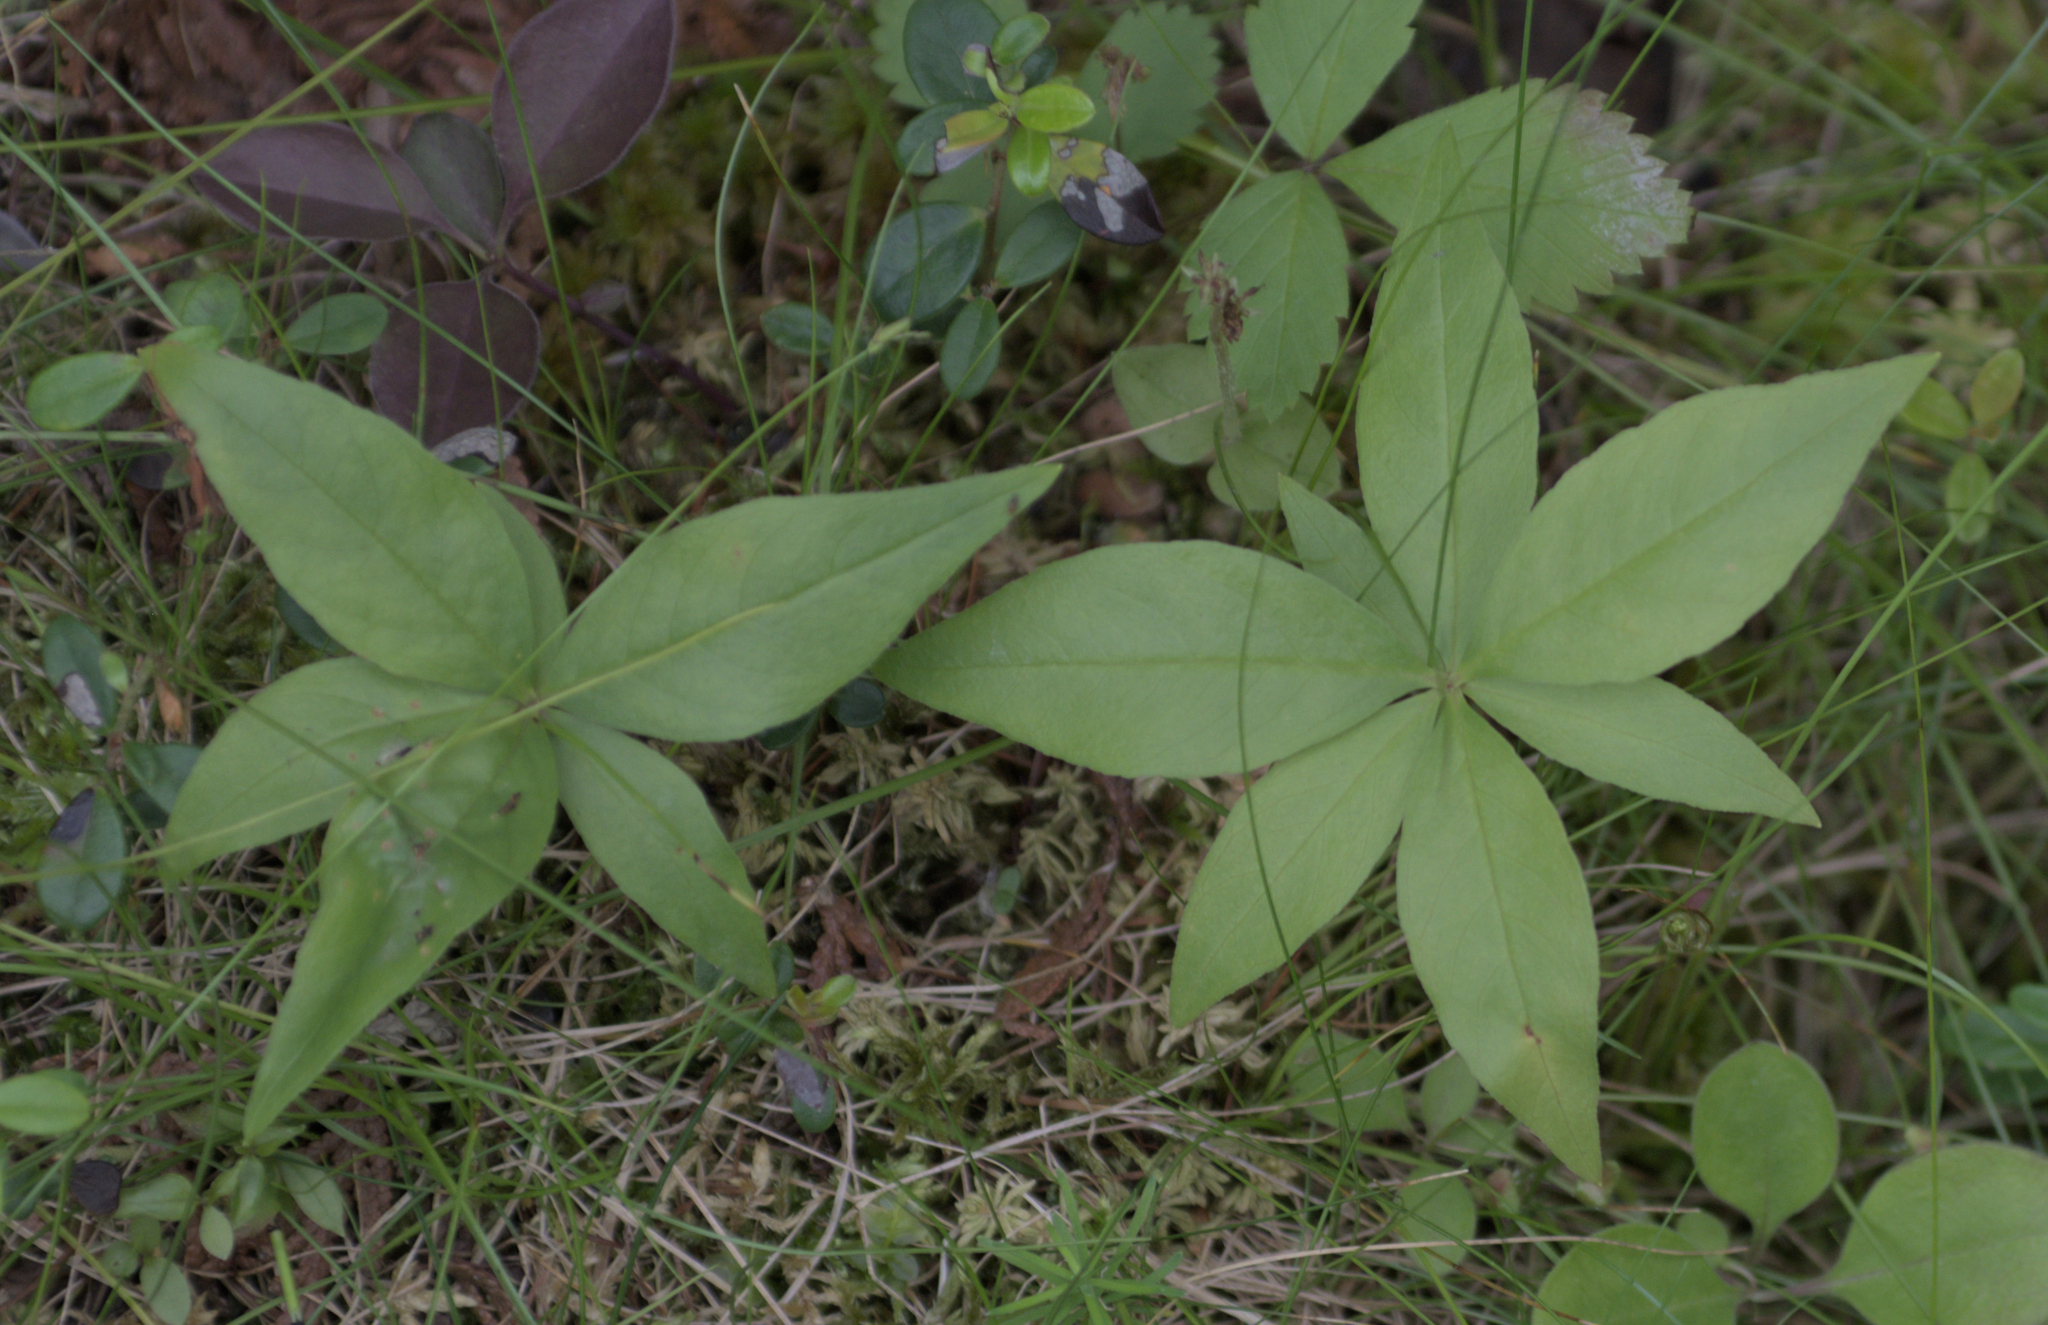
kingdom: Plantae
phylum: Tracheophyta
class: Magnoliopsida
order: Ericales
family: Primulaceae
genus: Lysimachia
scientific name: Lysimachia borealis
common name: American starflower
